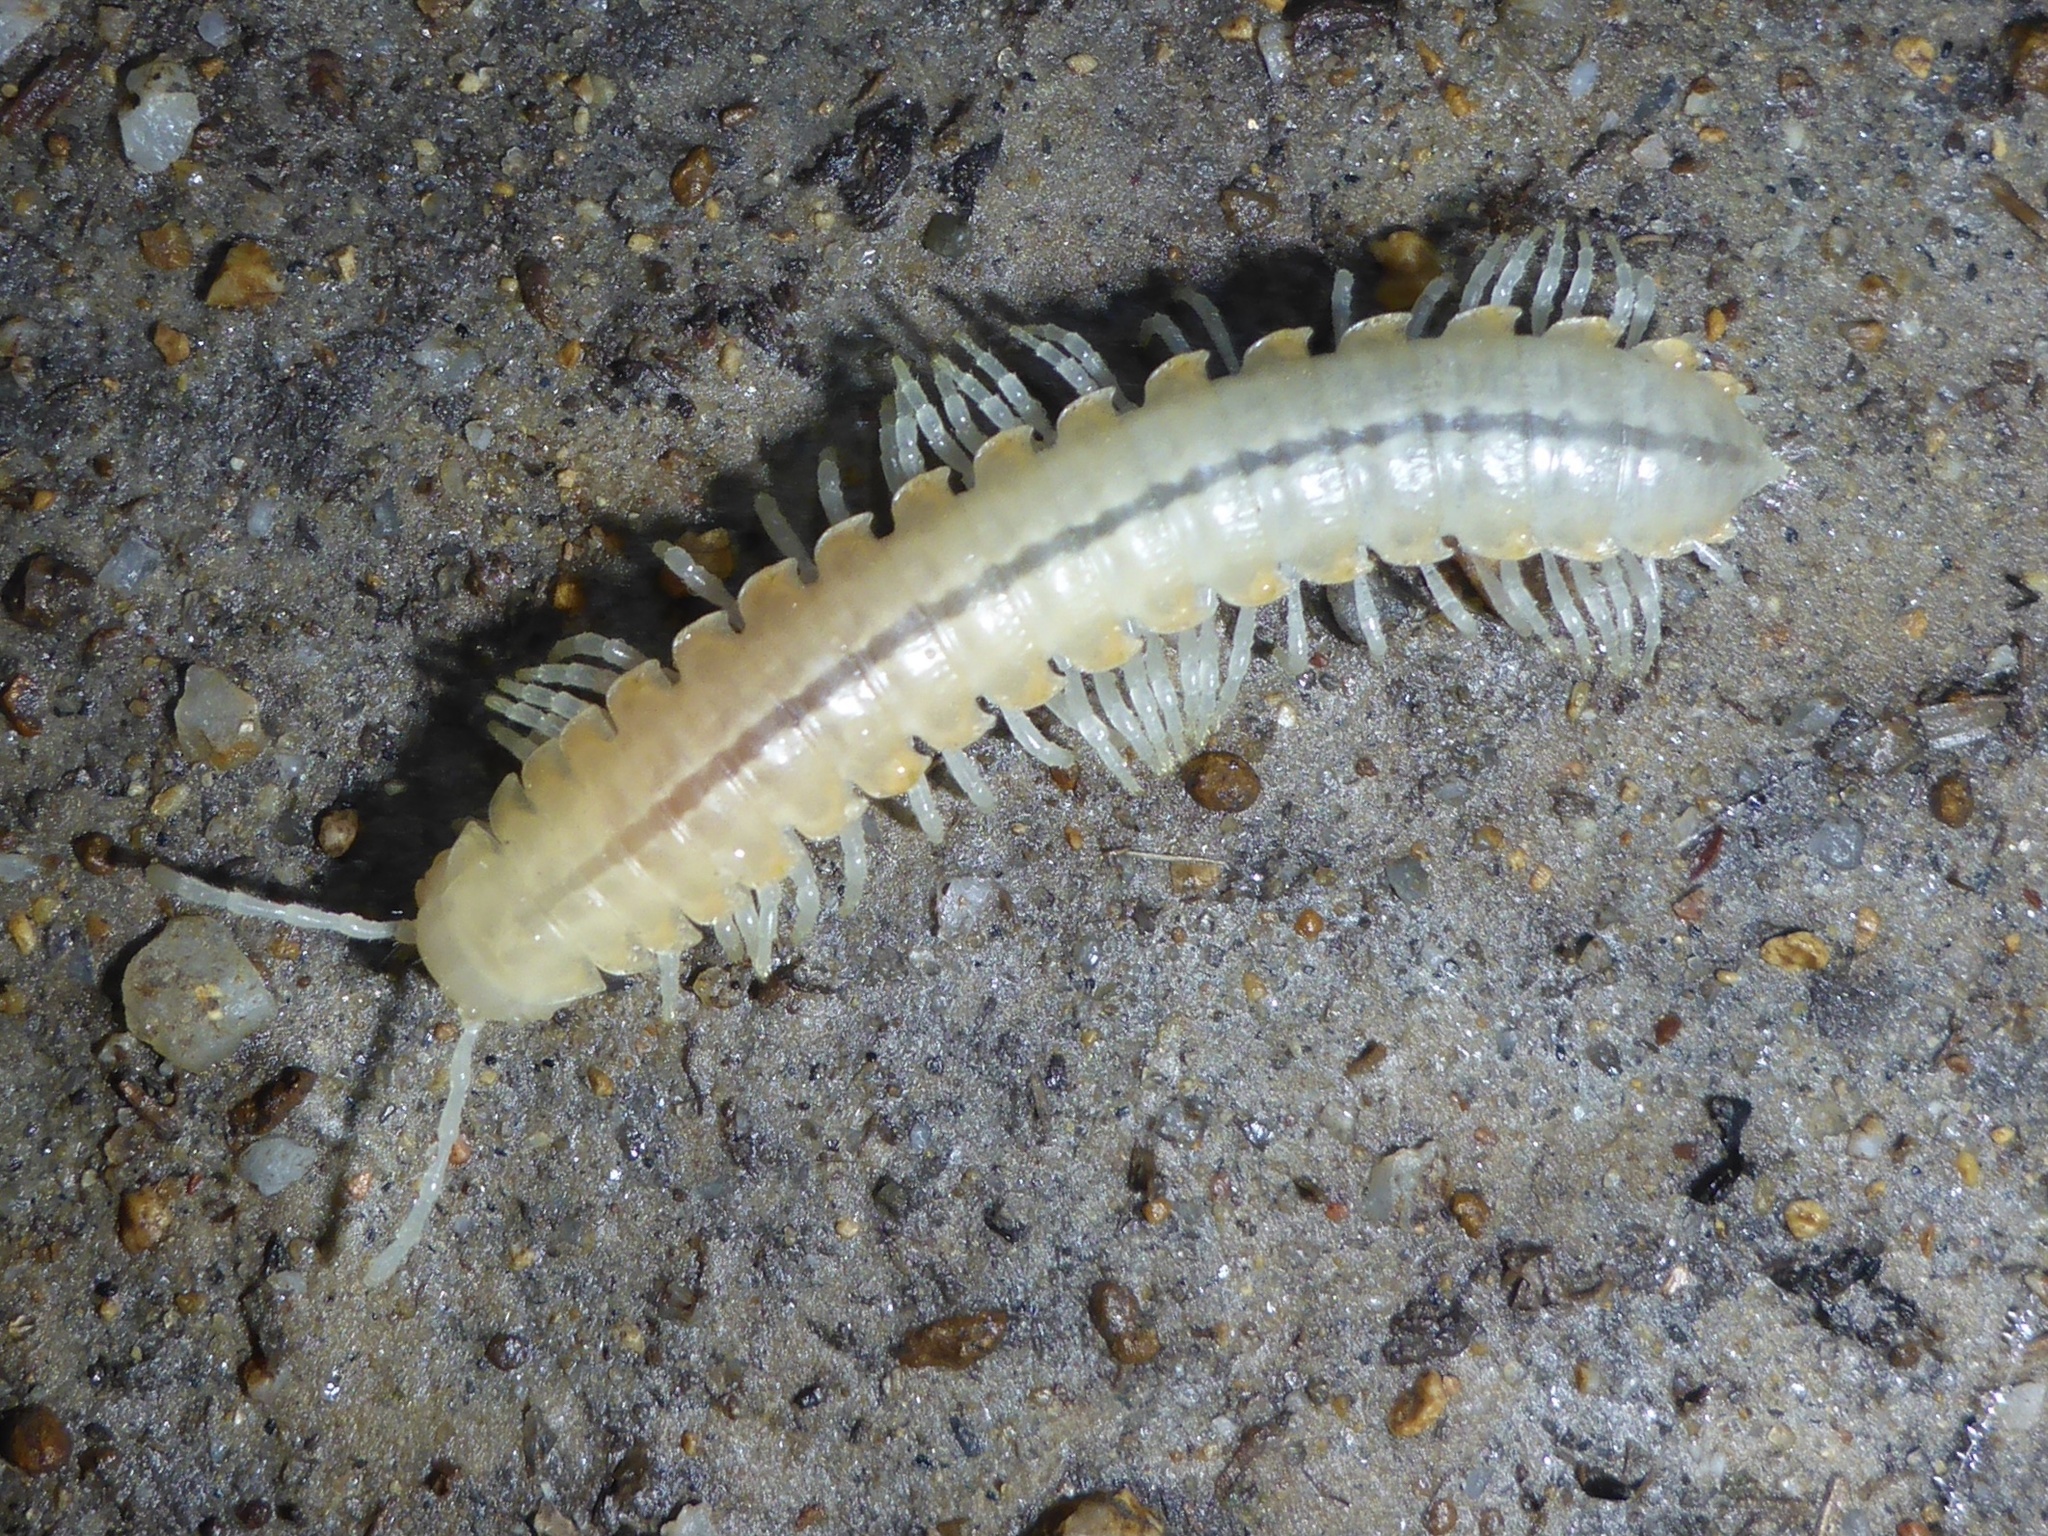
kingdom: Animalia
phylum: Arthropoda
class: Diplopoda
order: Polydesmida
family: Xystodesmidae
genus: Xystocheir
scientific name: Xystocheir dissecta
